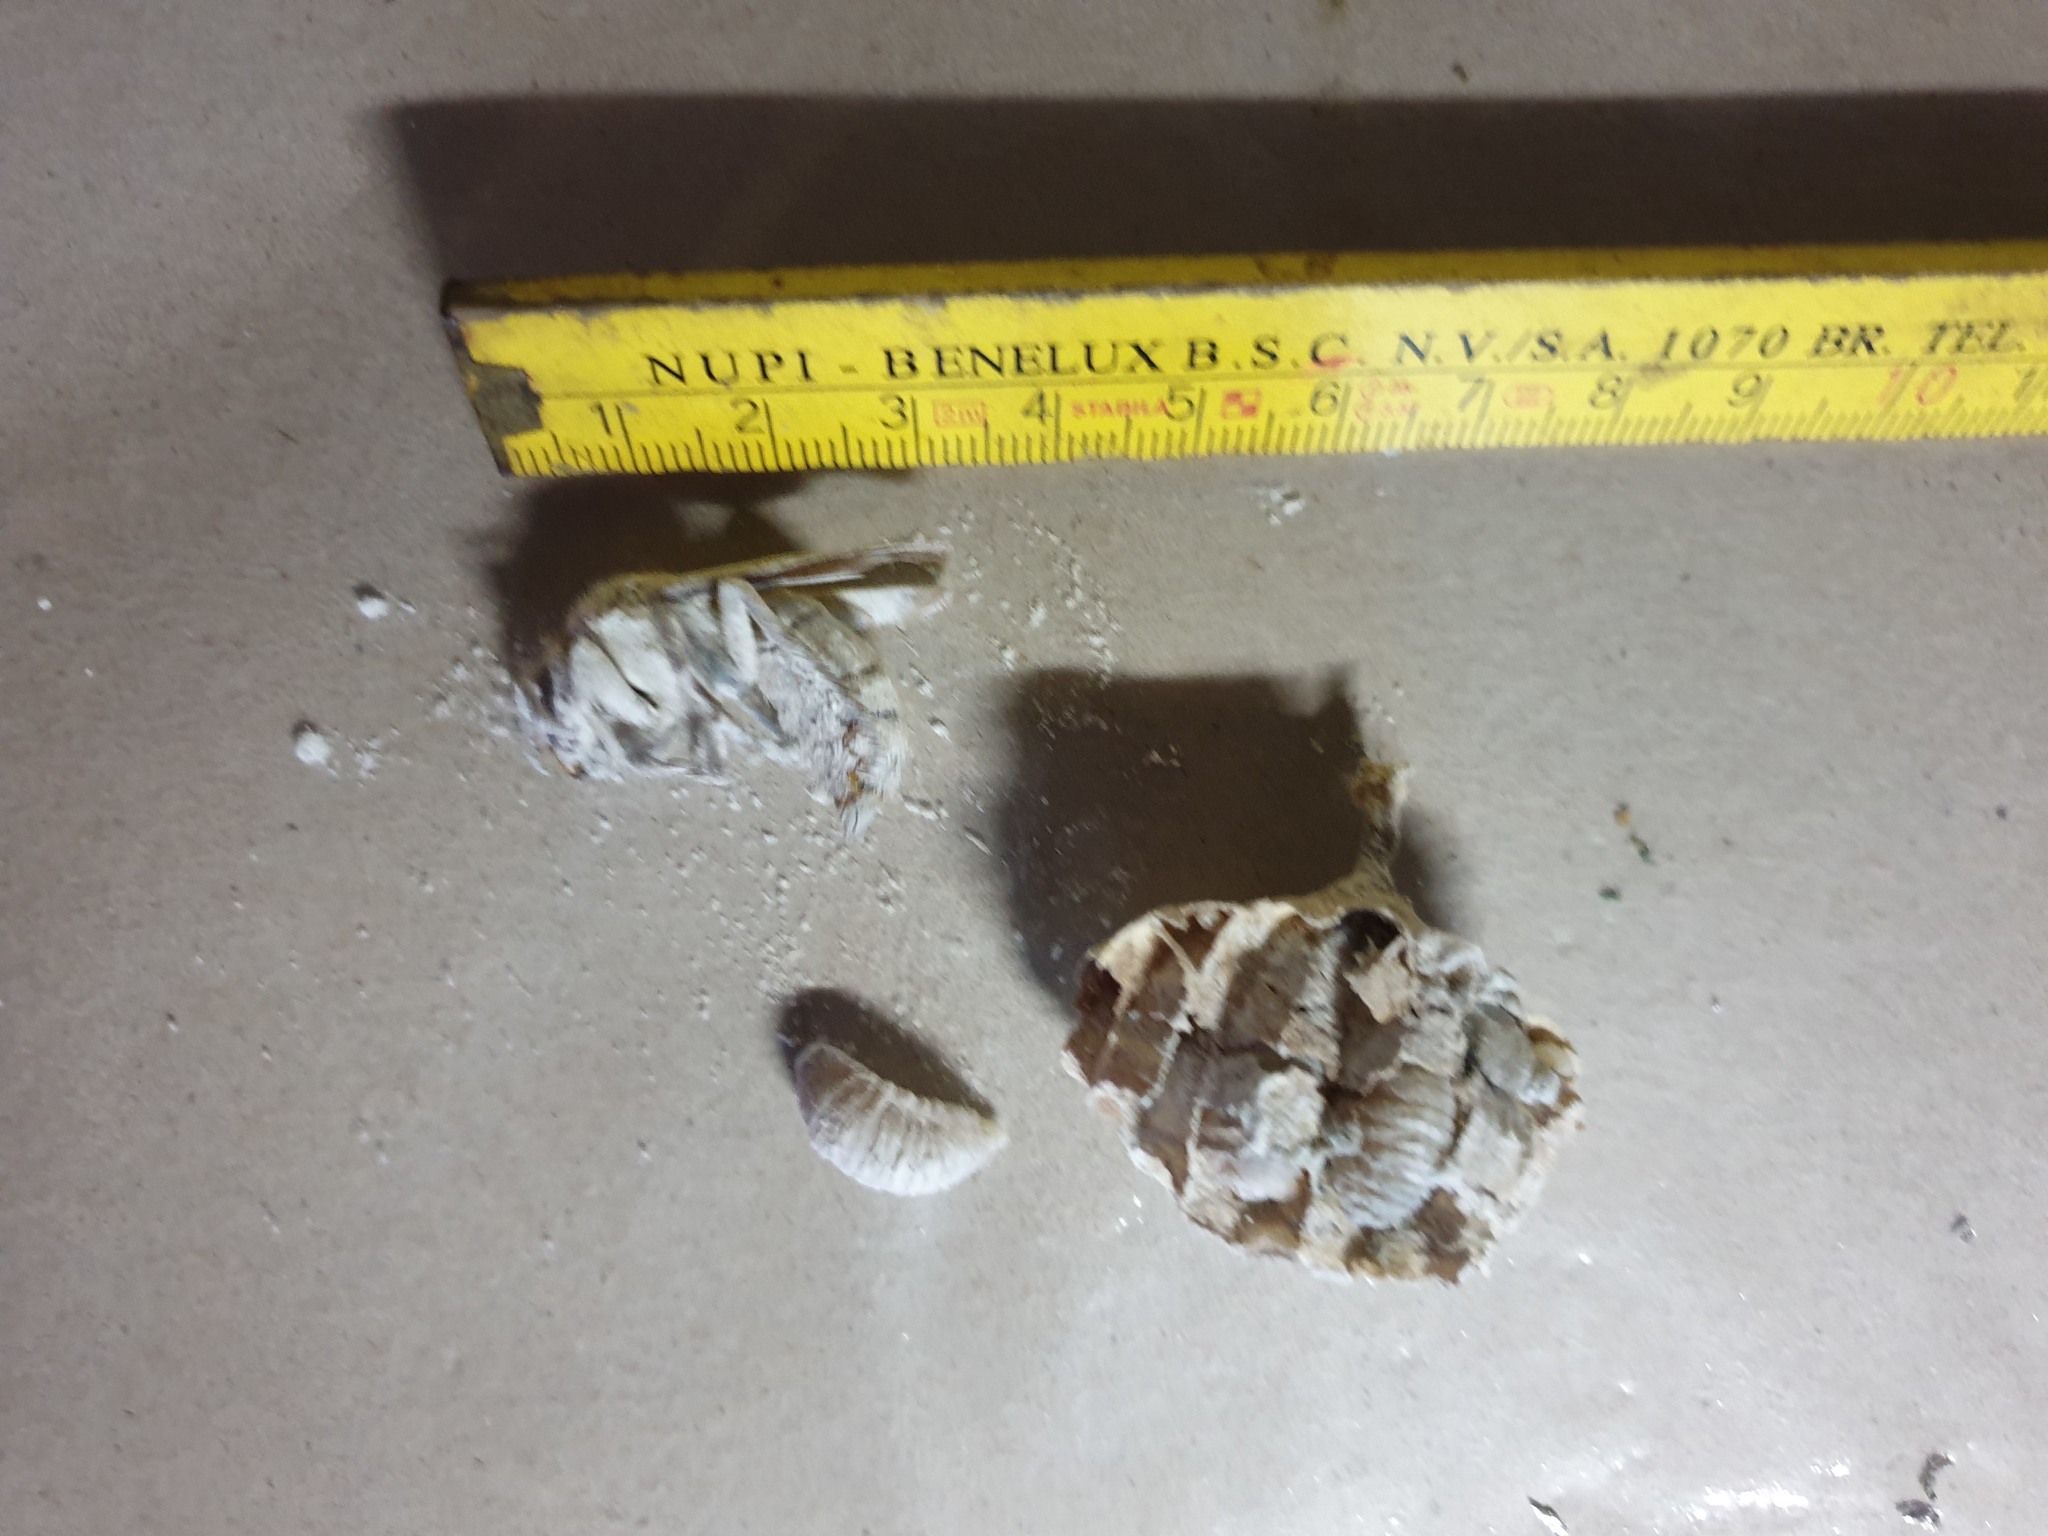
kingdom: Animalia
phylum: Arthropoda
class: Insecta
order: Hymenoptera
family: Vespidae
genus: Vespa
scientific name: Vespa crabro
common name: Hornet
